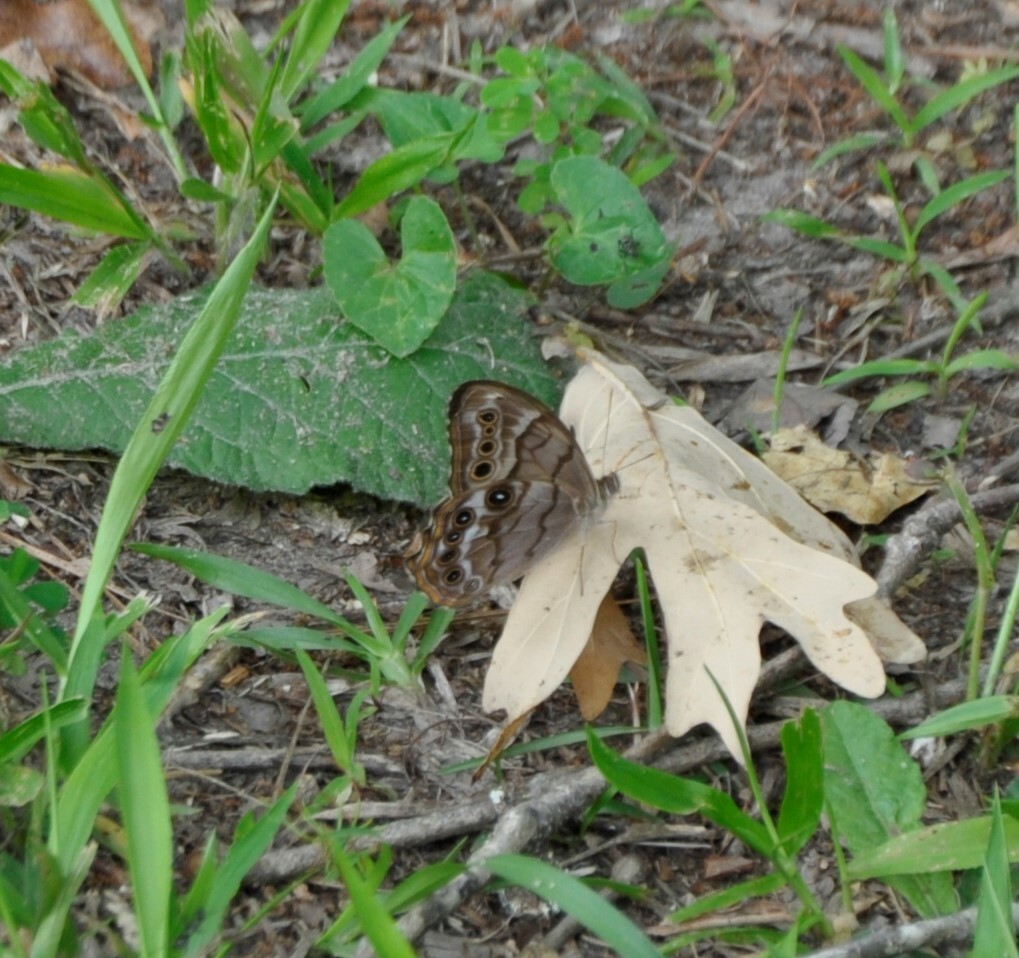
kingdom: Animalia
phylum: Arthropoda
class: Insecta
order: Lepidoptera
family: Nymphalidae
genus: Enodia
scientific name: Enodia portlandia
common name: Southern pearly-eye
